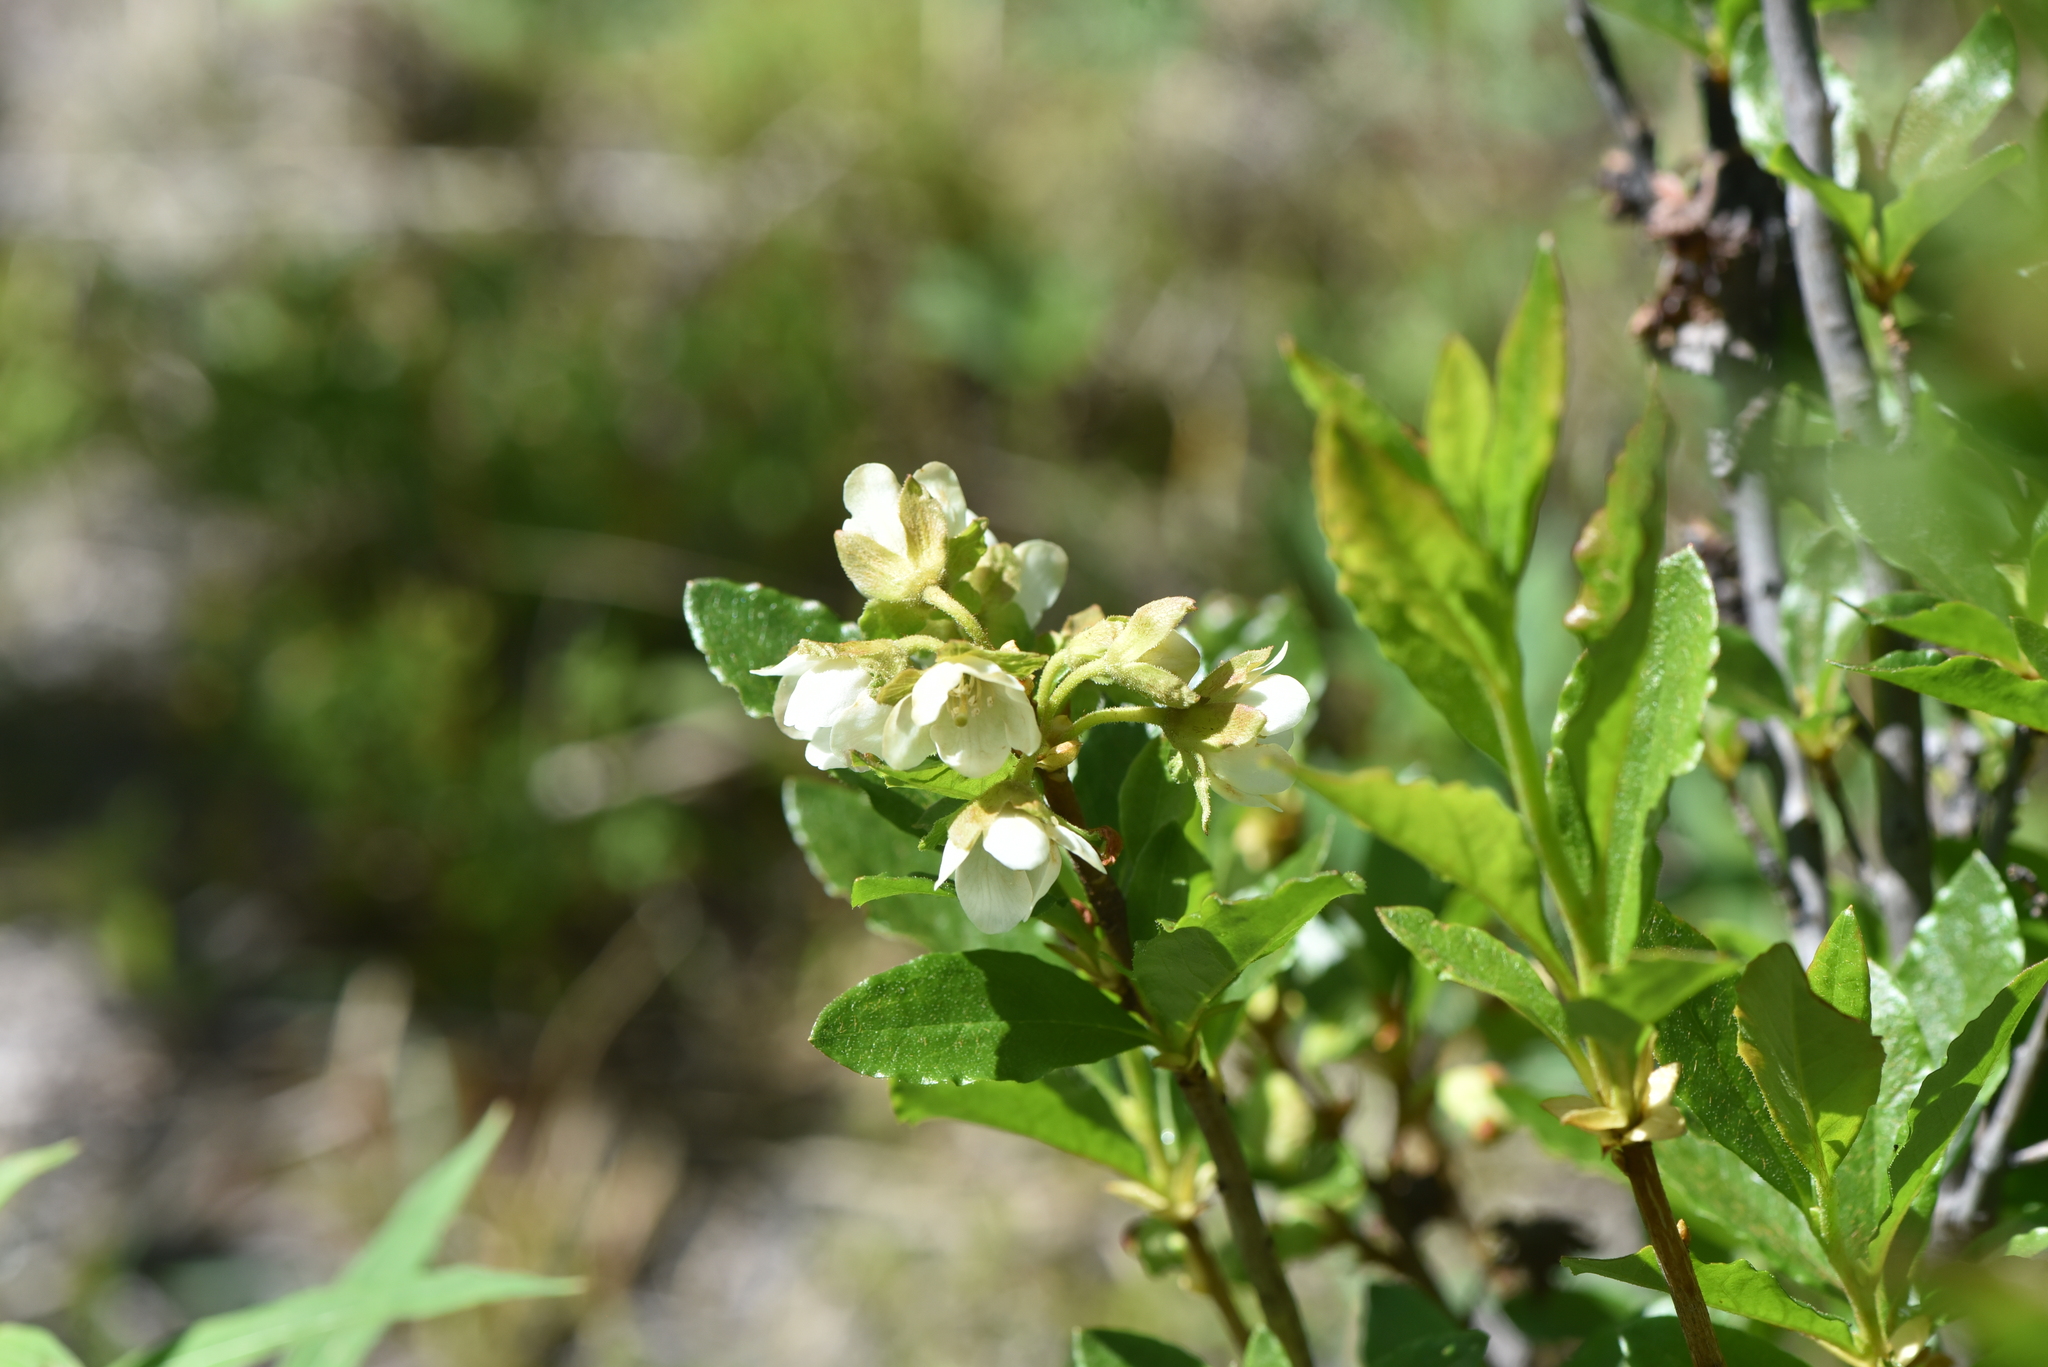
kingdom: Plantae
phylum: Tracheophyta
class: Magnoliopsida
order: Ericales
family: Ericaceae
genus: Rhododendron
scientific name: Rhododendron albiflorum
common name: White rhododendron
